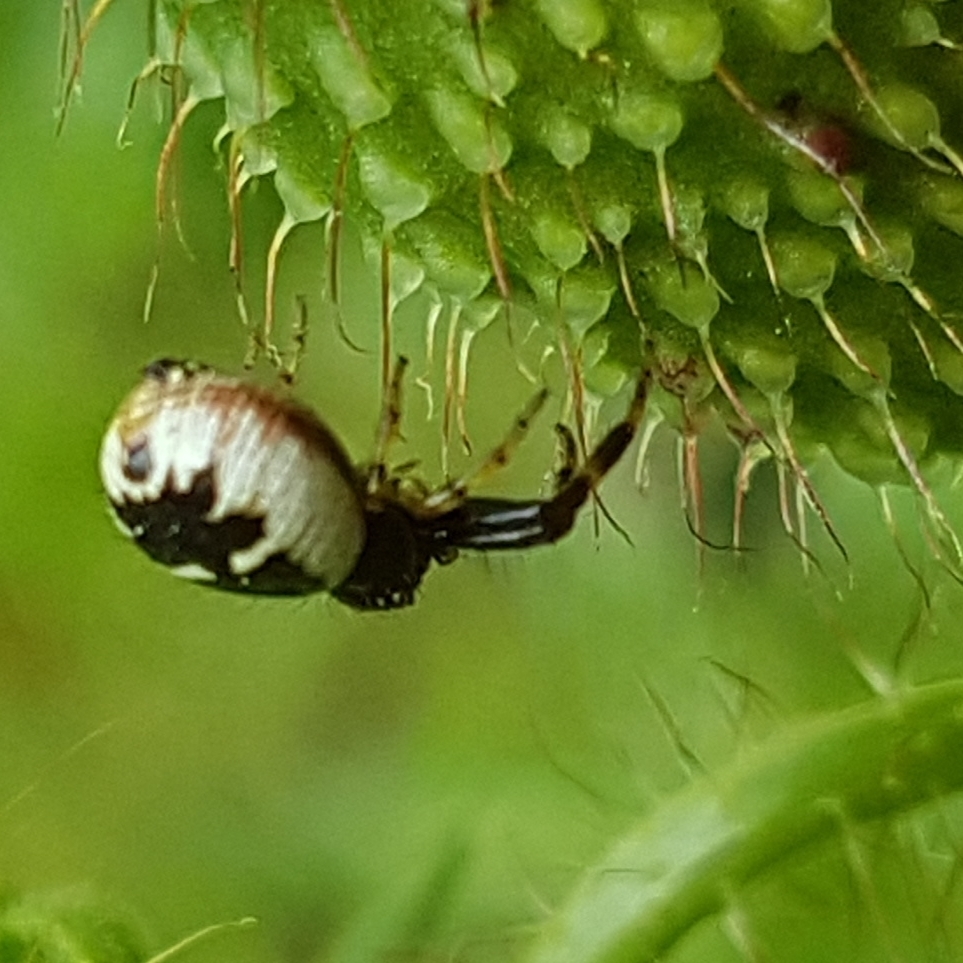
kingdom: Animalia
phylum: Arthropoda
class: Arachnida
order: Araneae
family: Thomisidae
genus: Synema
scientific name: Synema globosum
